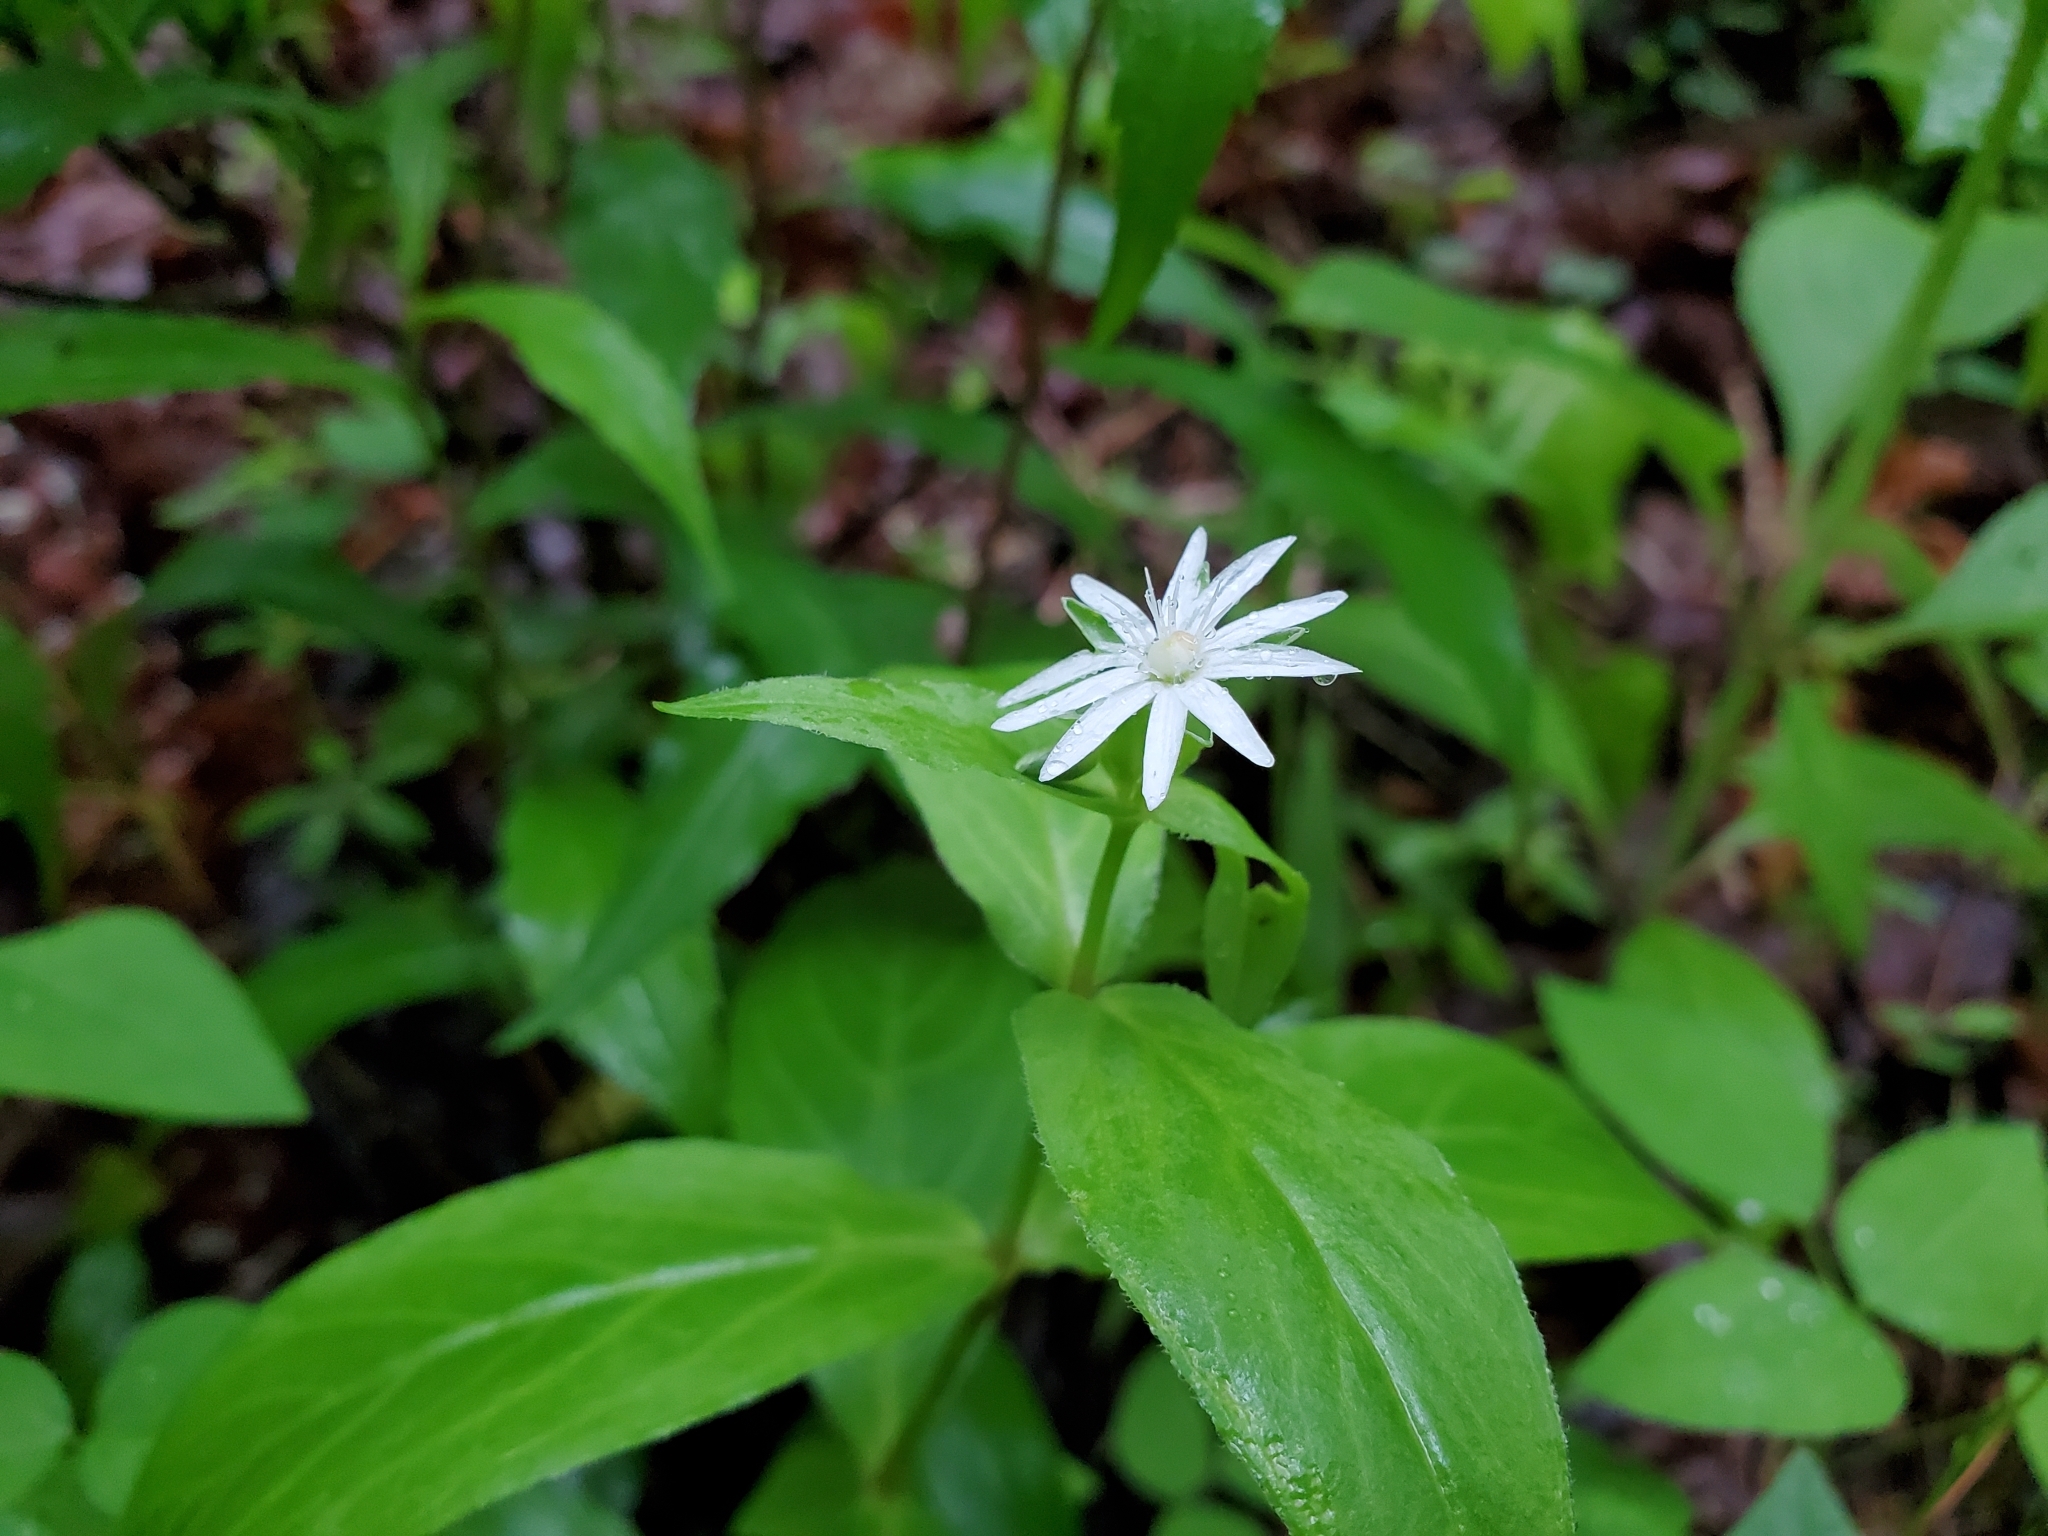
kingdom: Plantae
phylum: Tracheophyta
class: Magnoliopsida
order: Caryophyllales
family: Caryophyllaceae
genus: Stellaria
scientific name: Stellaria pubera
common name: Star chickweed
